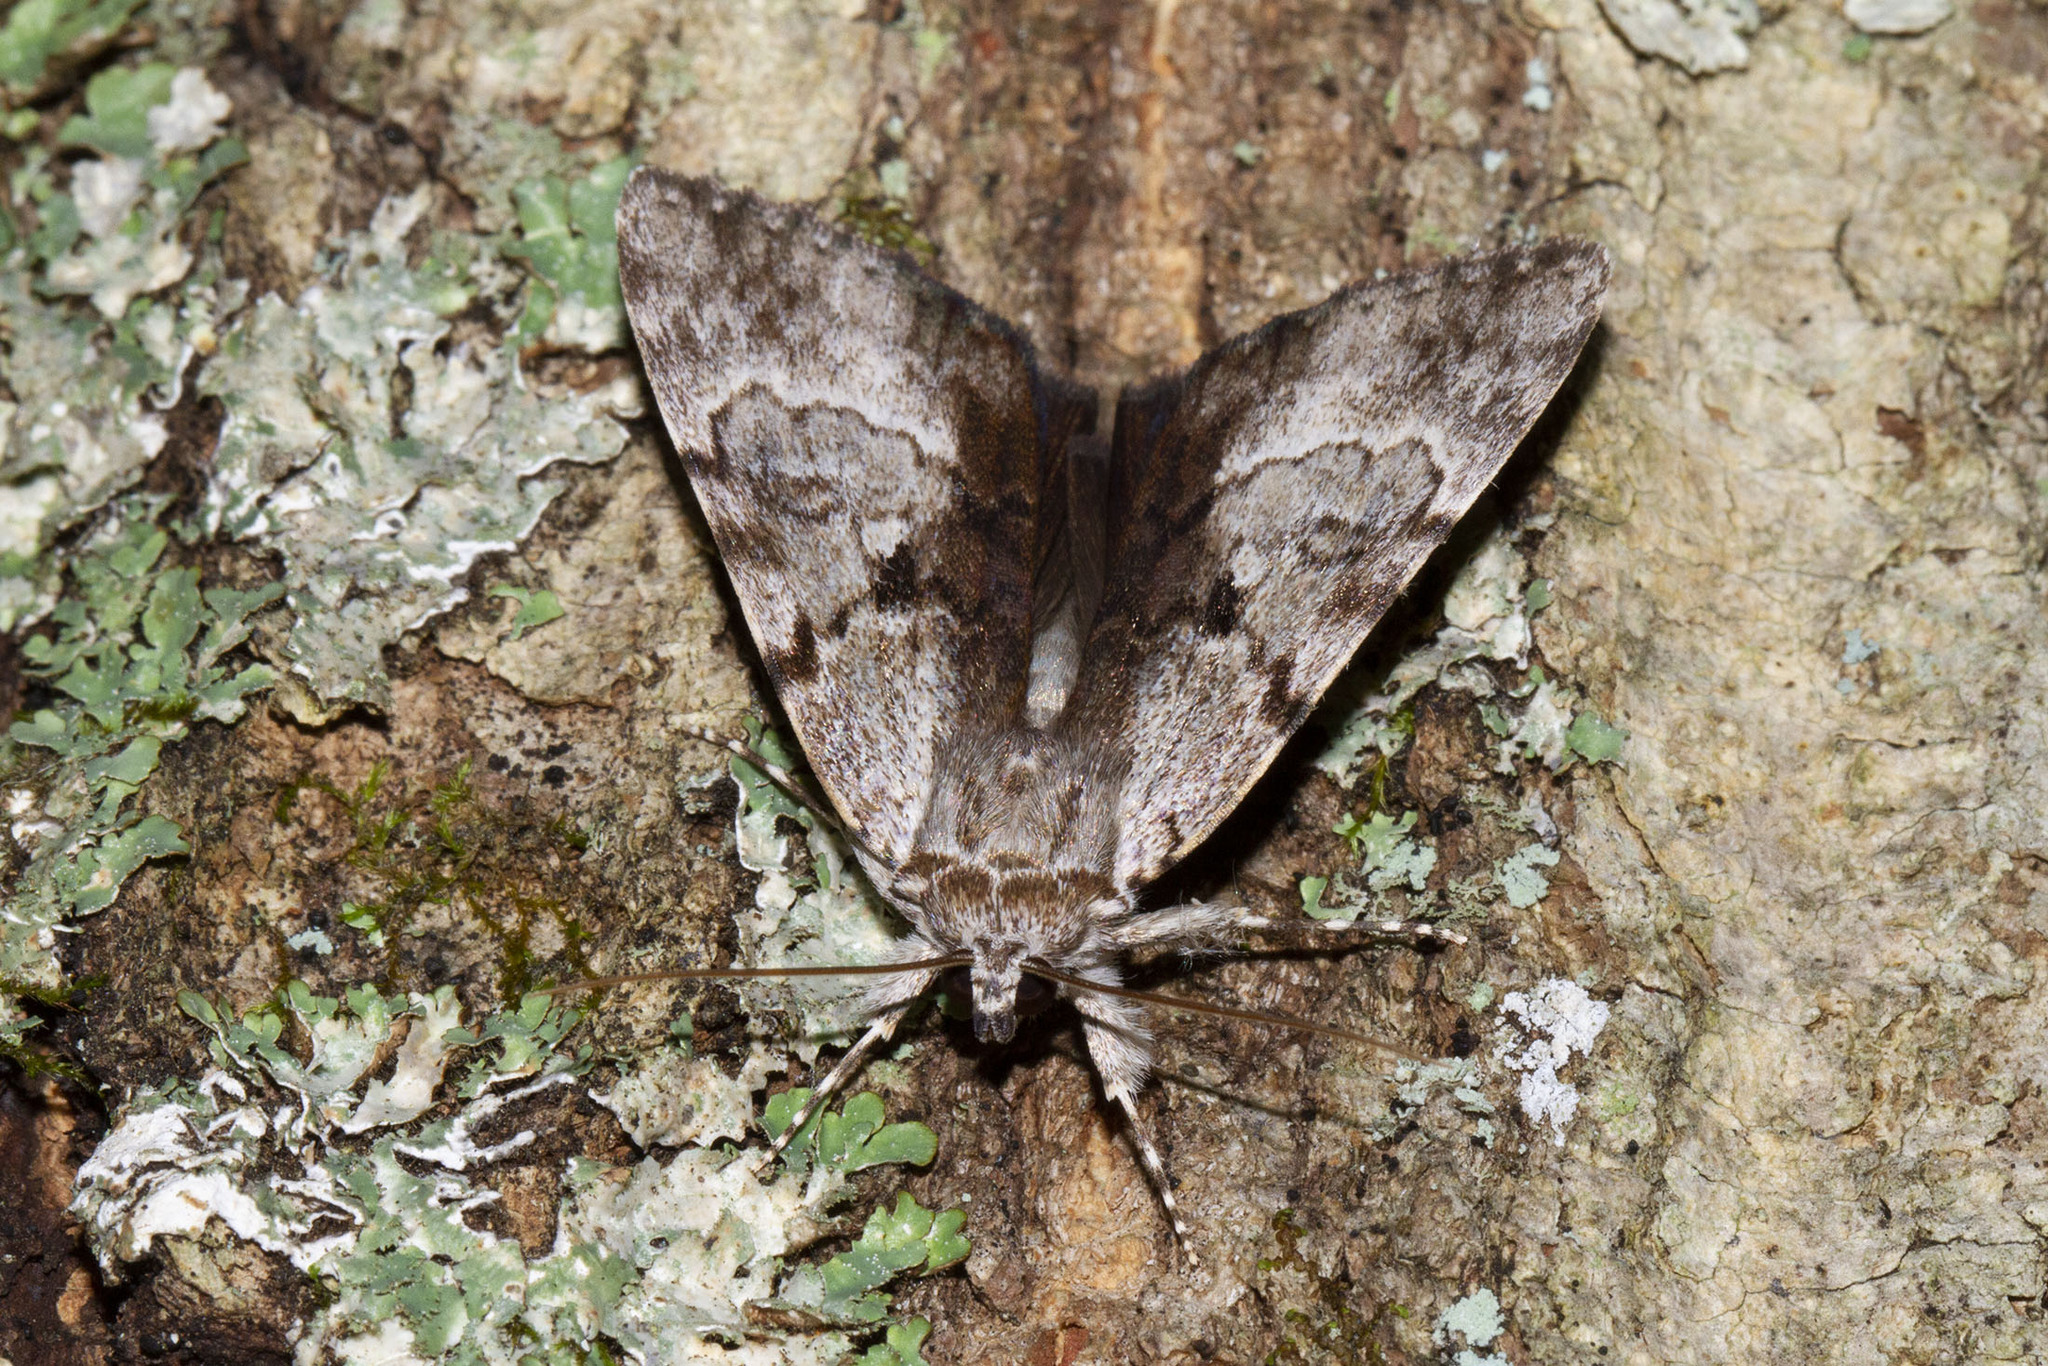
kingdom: Animalia
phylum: Arthropoda
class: Insecta
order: Lepidoptera
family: Erebidae
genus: Catocala
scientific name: Catocala andromedae
